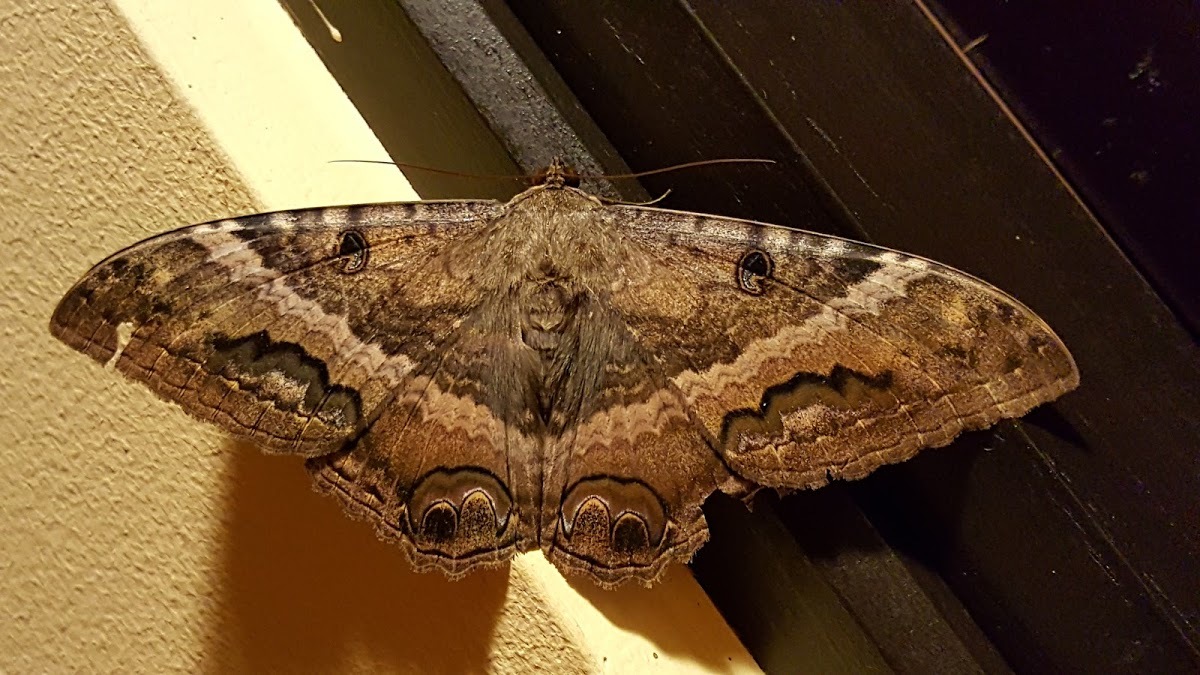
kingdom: Animalia
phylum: Arthropoda
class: Insecta
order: Lepidoptera
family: Erebidae
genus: Ascalapha
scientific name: Ascalapha odorata
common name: Black witch
